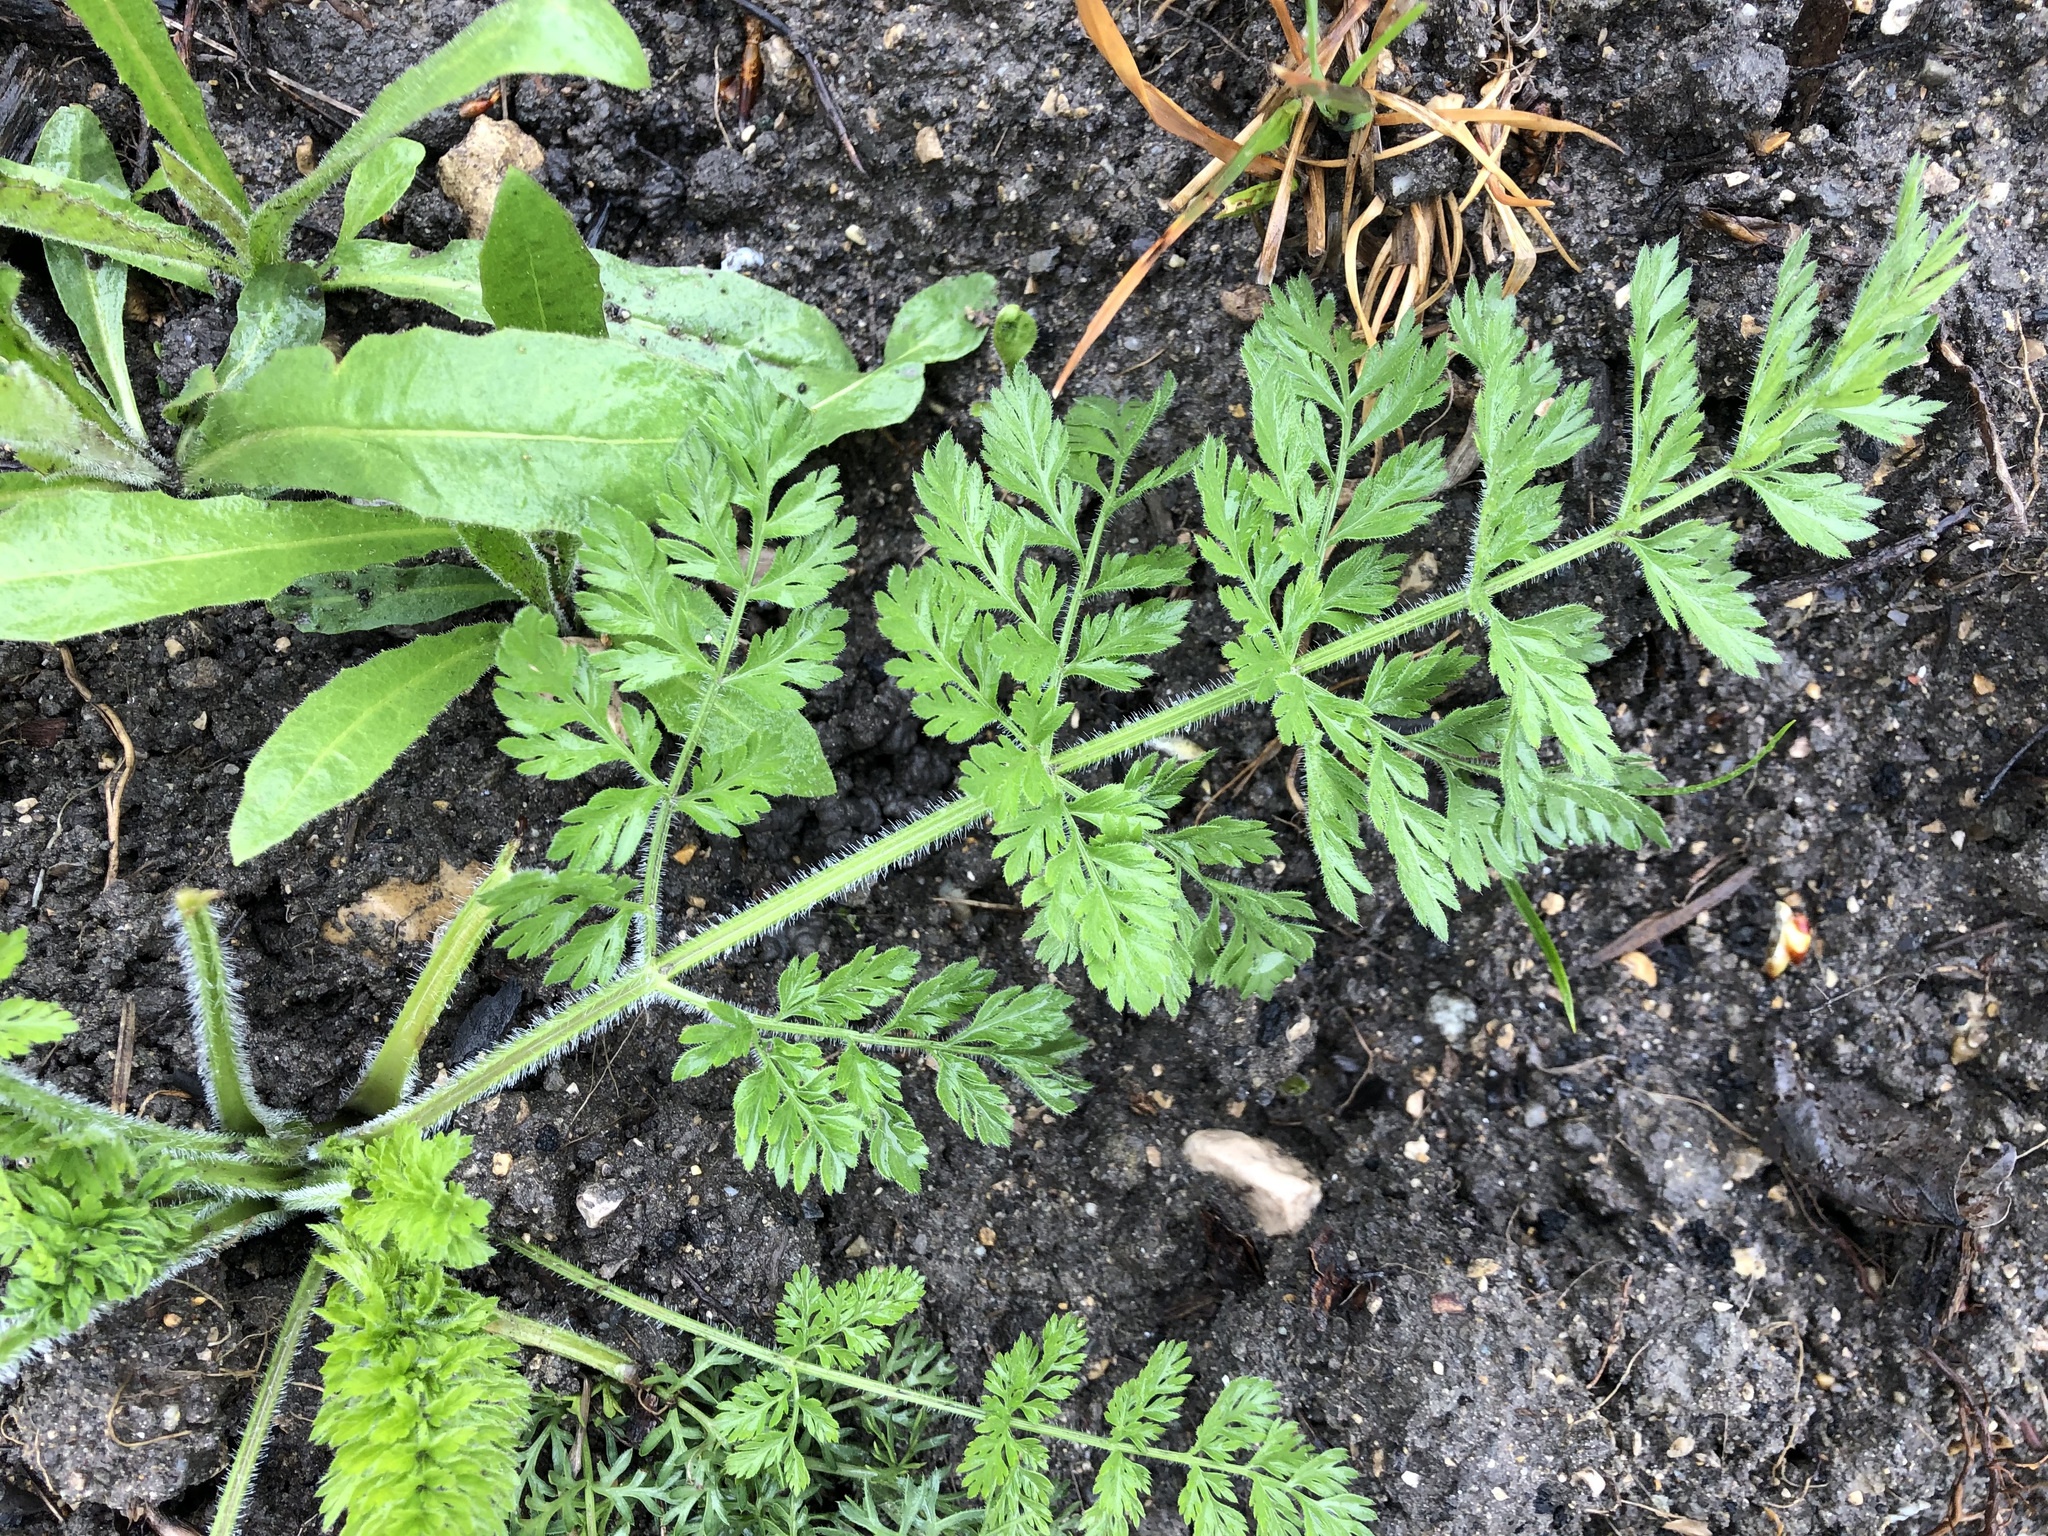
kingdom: Plantae
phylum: Tracheophyta
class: Magnoliopsida
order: Apiales
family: Apiaceae
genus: Daucus
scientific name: Daucus carota
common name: Wild carrot
